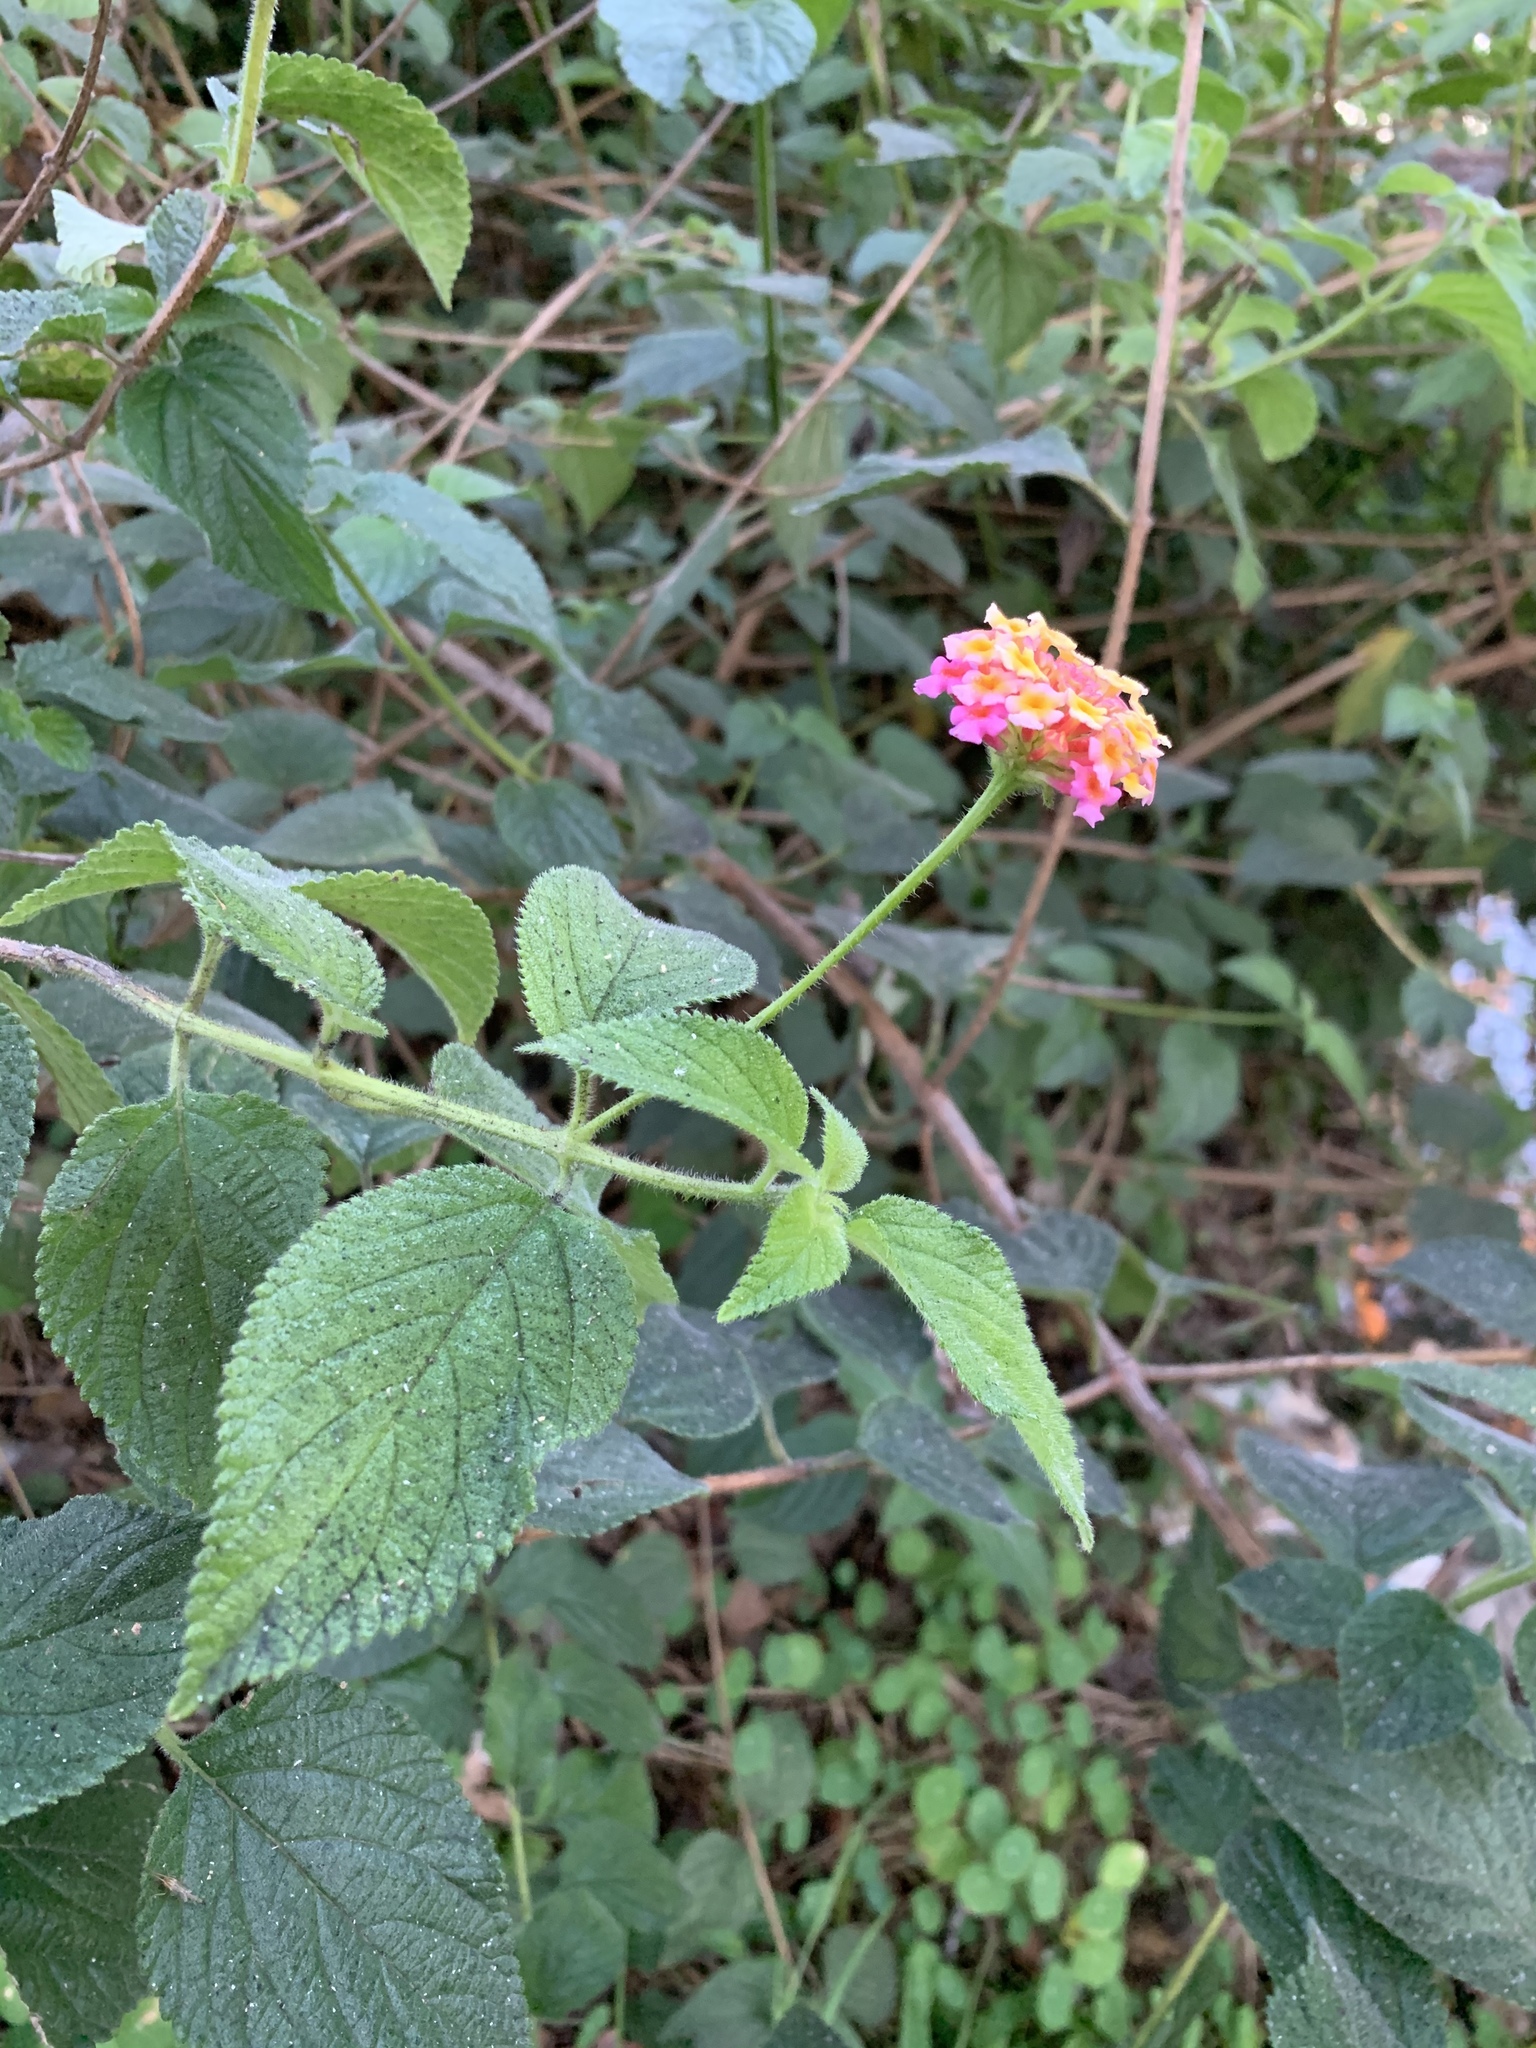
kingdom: Plantae
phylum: Tracheophyta
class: Magnoliopsida
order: Lamiales
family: Verbenaceae
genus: Lantana
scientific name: Lantana camara
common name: Lantana
